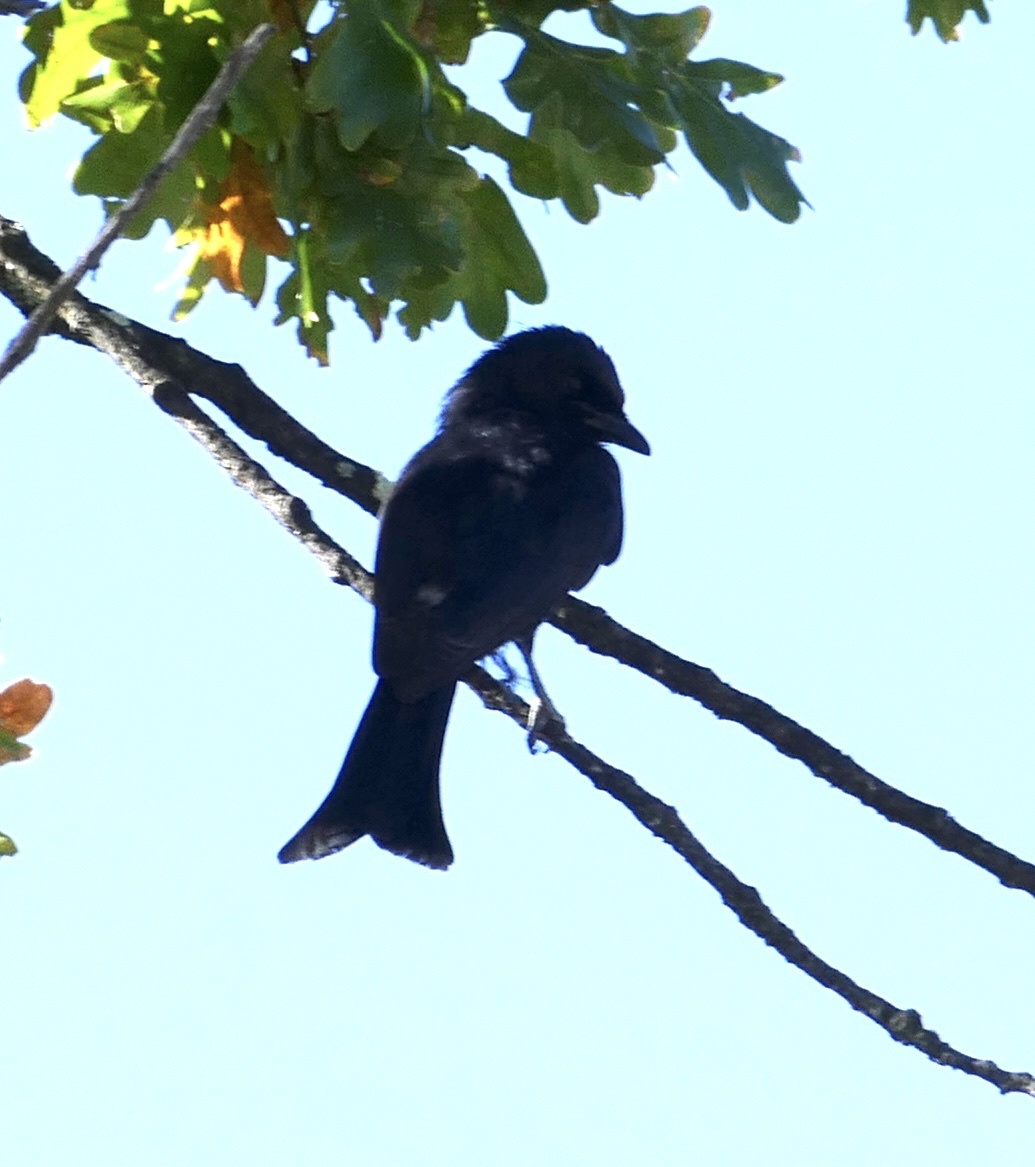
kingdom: Animalia
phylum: Chordata
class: Aves
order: Passeriformes
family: Dicruridae
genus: Dicrurus
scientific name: Dicrurus adsimilis
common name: Fork-tailed drongo
